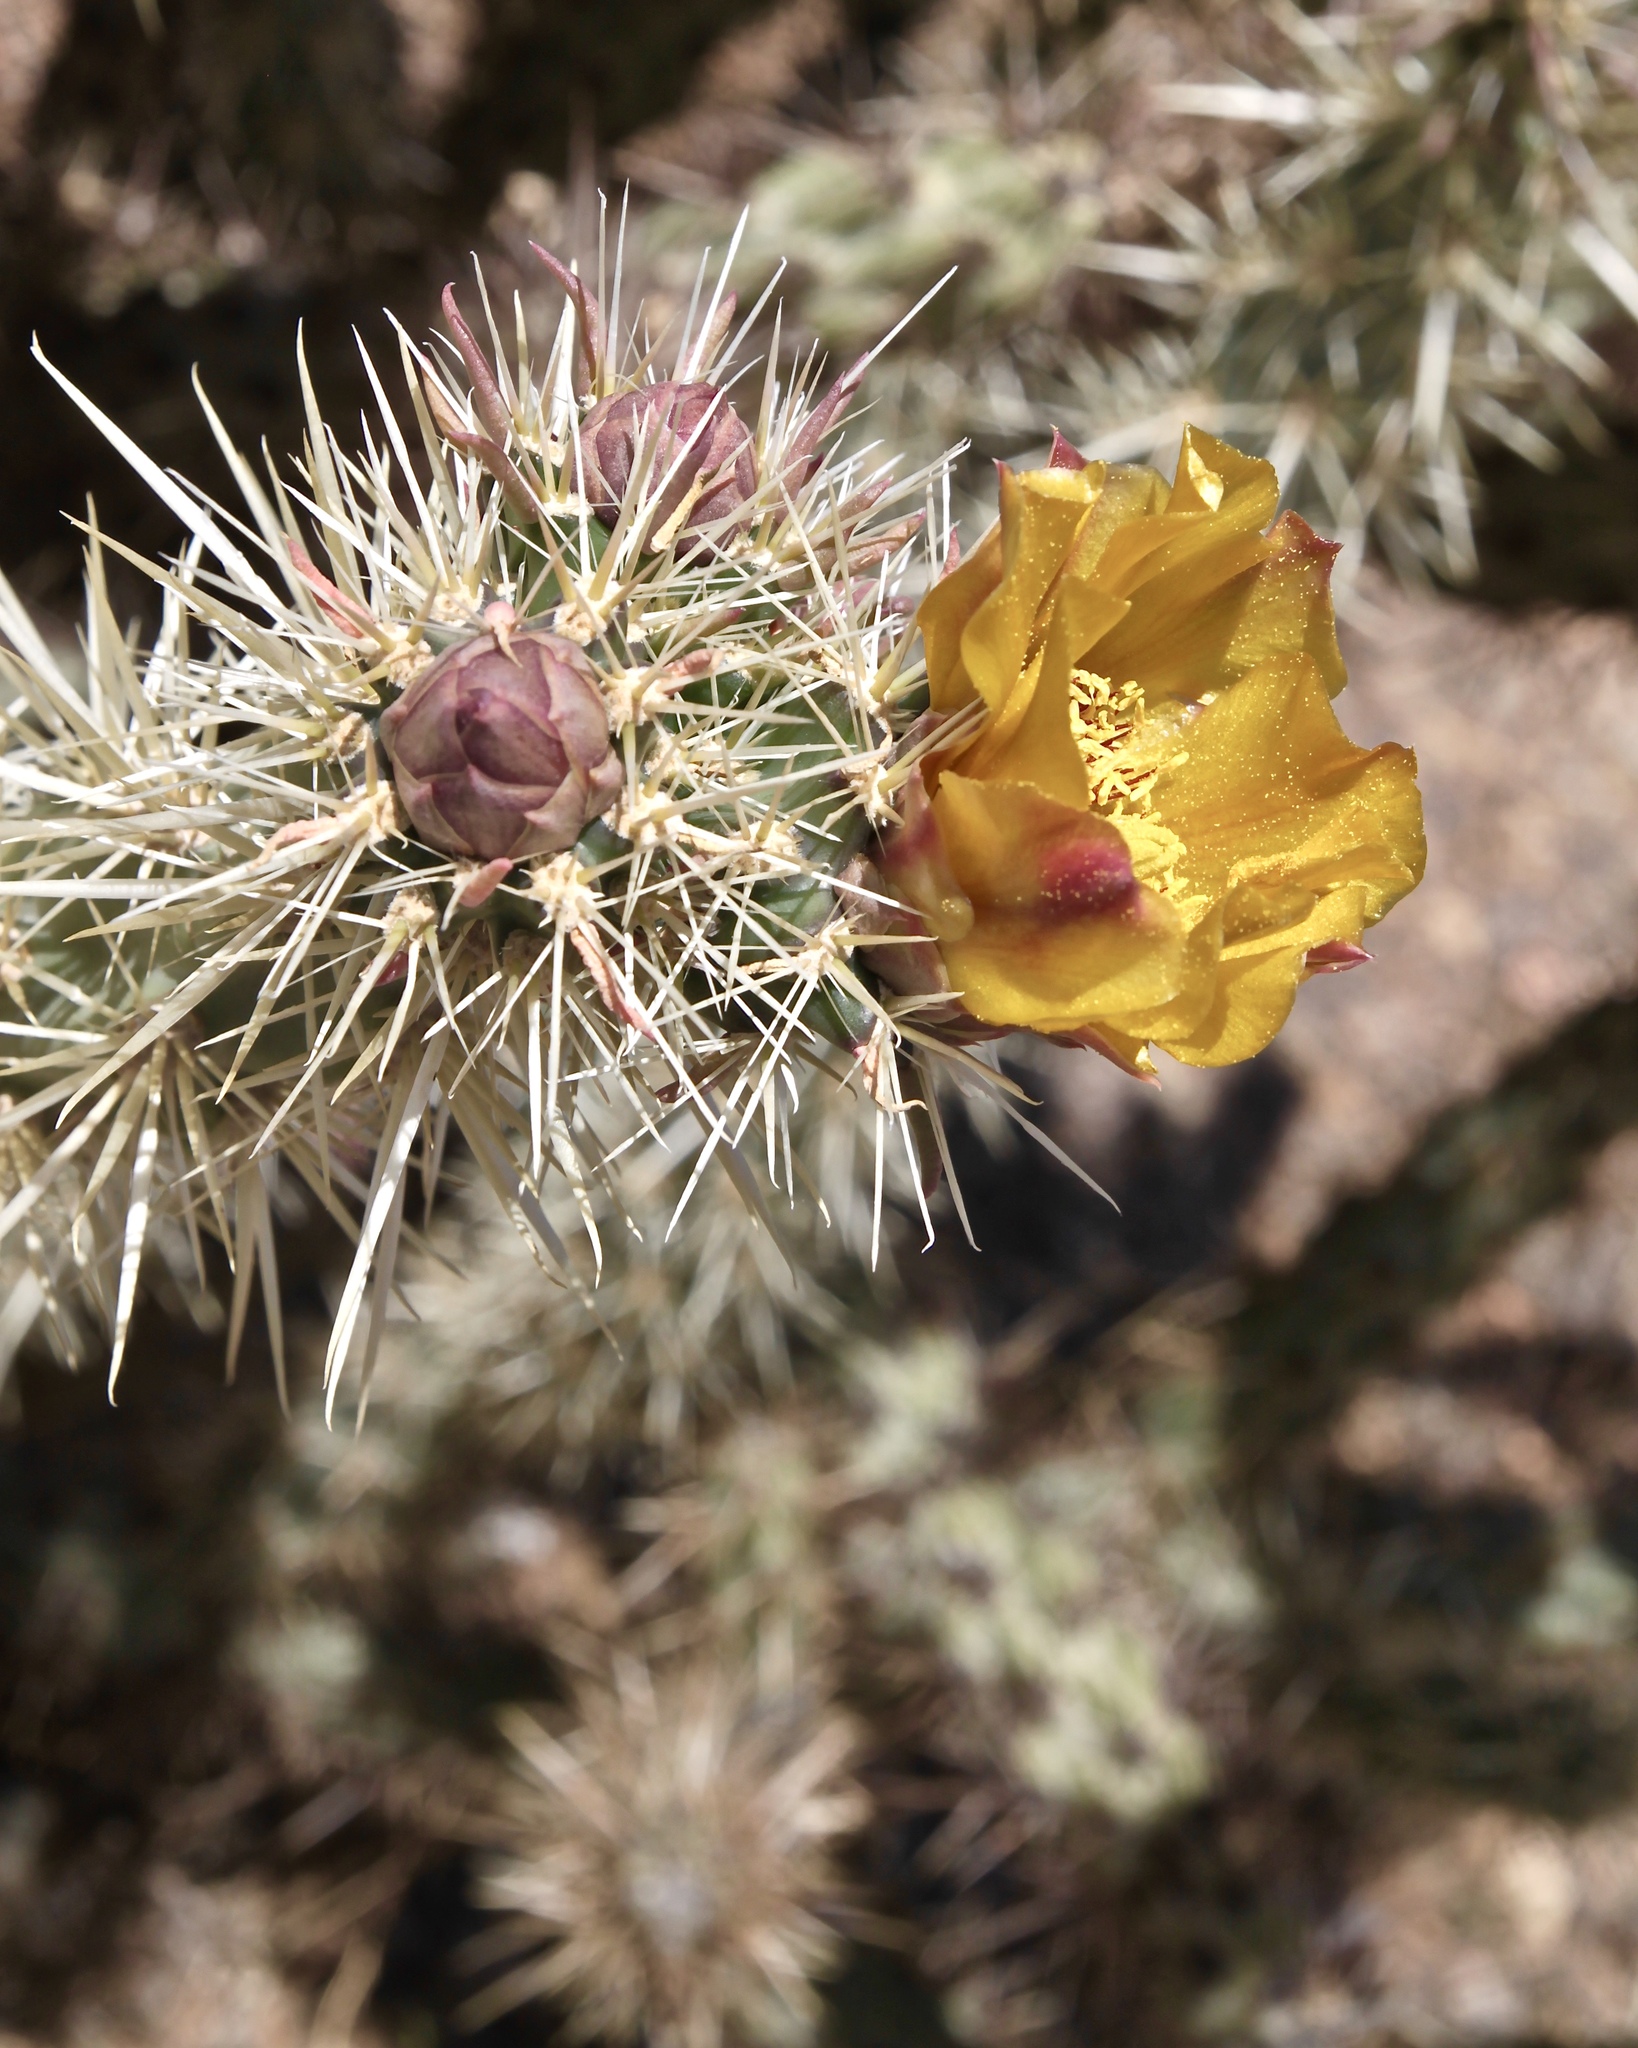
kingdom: Plantae
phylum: Tracheophyta
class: Magnoliopsida
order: Caryophyllales
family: Cactaceae
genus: Cylindropuntia
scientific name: Cylindropuntia acanthocarpa
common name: Buckhorn cholla
